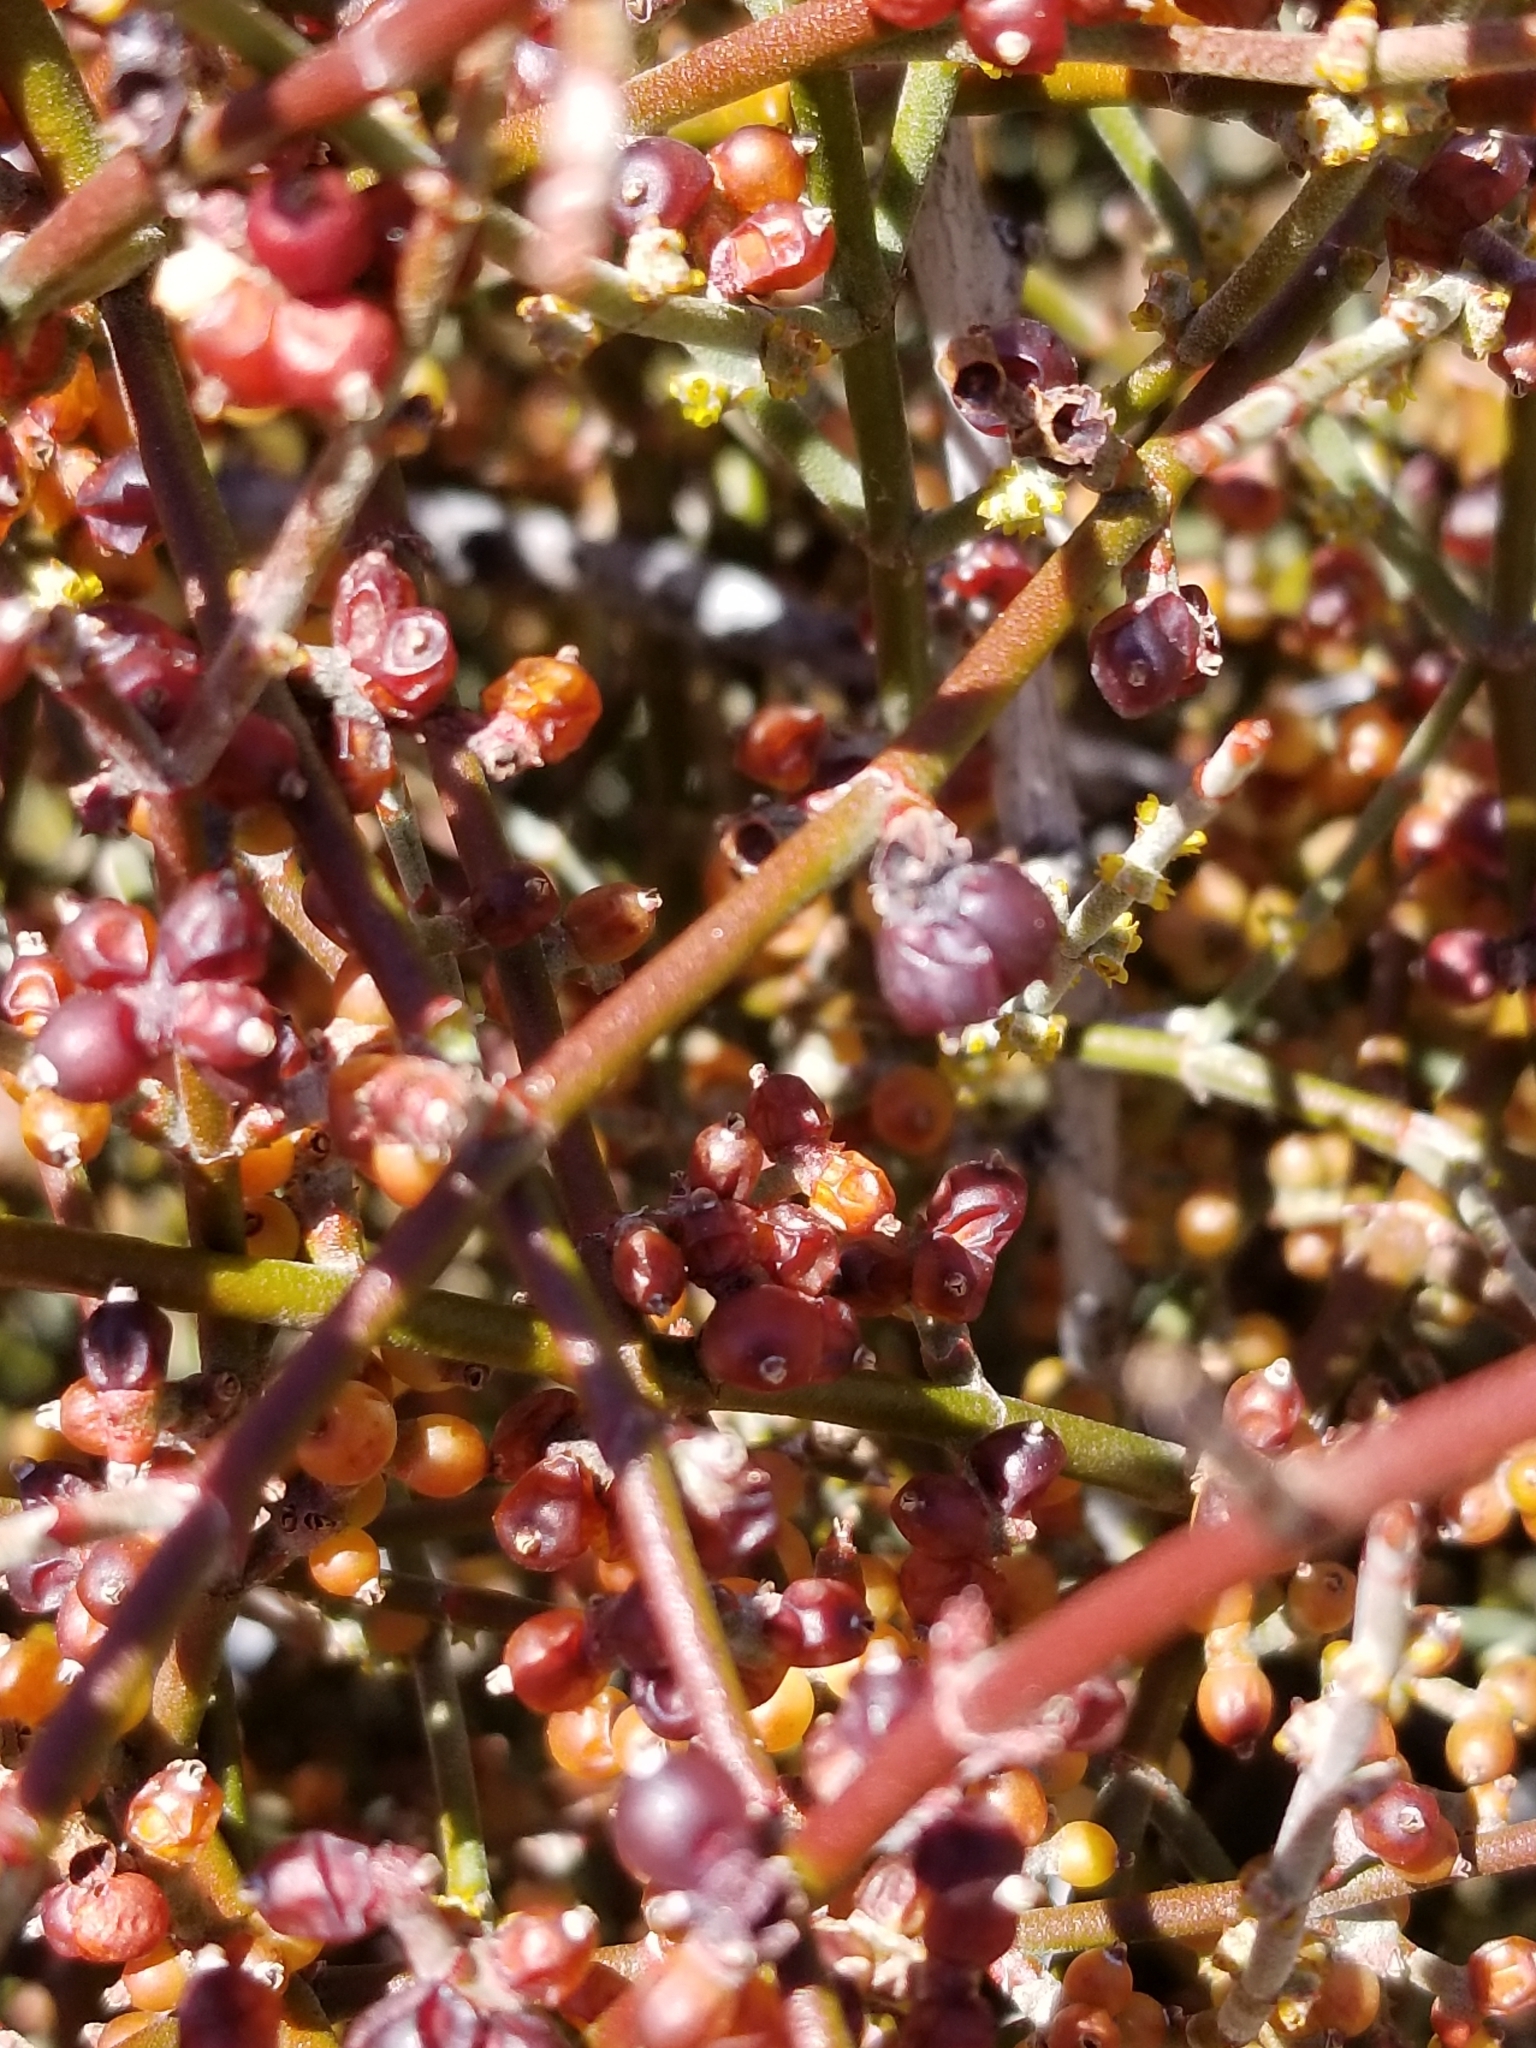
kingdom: Plantae
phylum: Tracheophyta
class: Magnoliopsida
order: Santalales
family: Viscaceae
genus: Phoradendron
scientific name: Phoradendron californicum
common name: Acacia mistletoe
